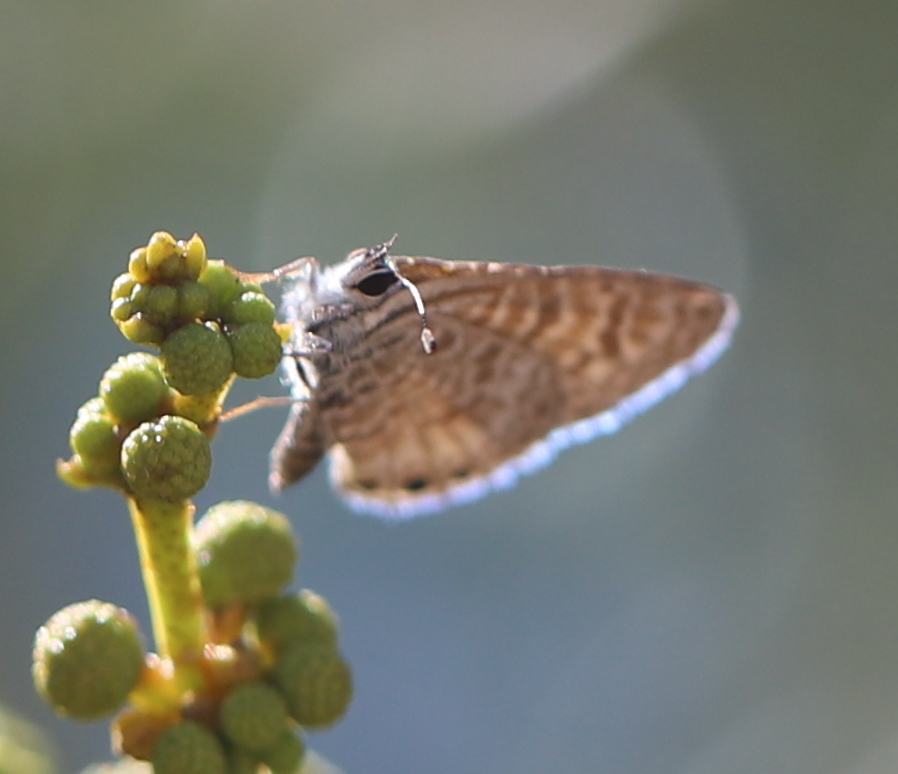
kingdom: Animalia
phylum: Arthropoda
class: Insecta
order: Lepidoptera
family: Lycaenidae
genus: Leptotes
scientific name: Leptotes trigemmatus
